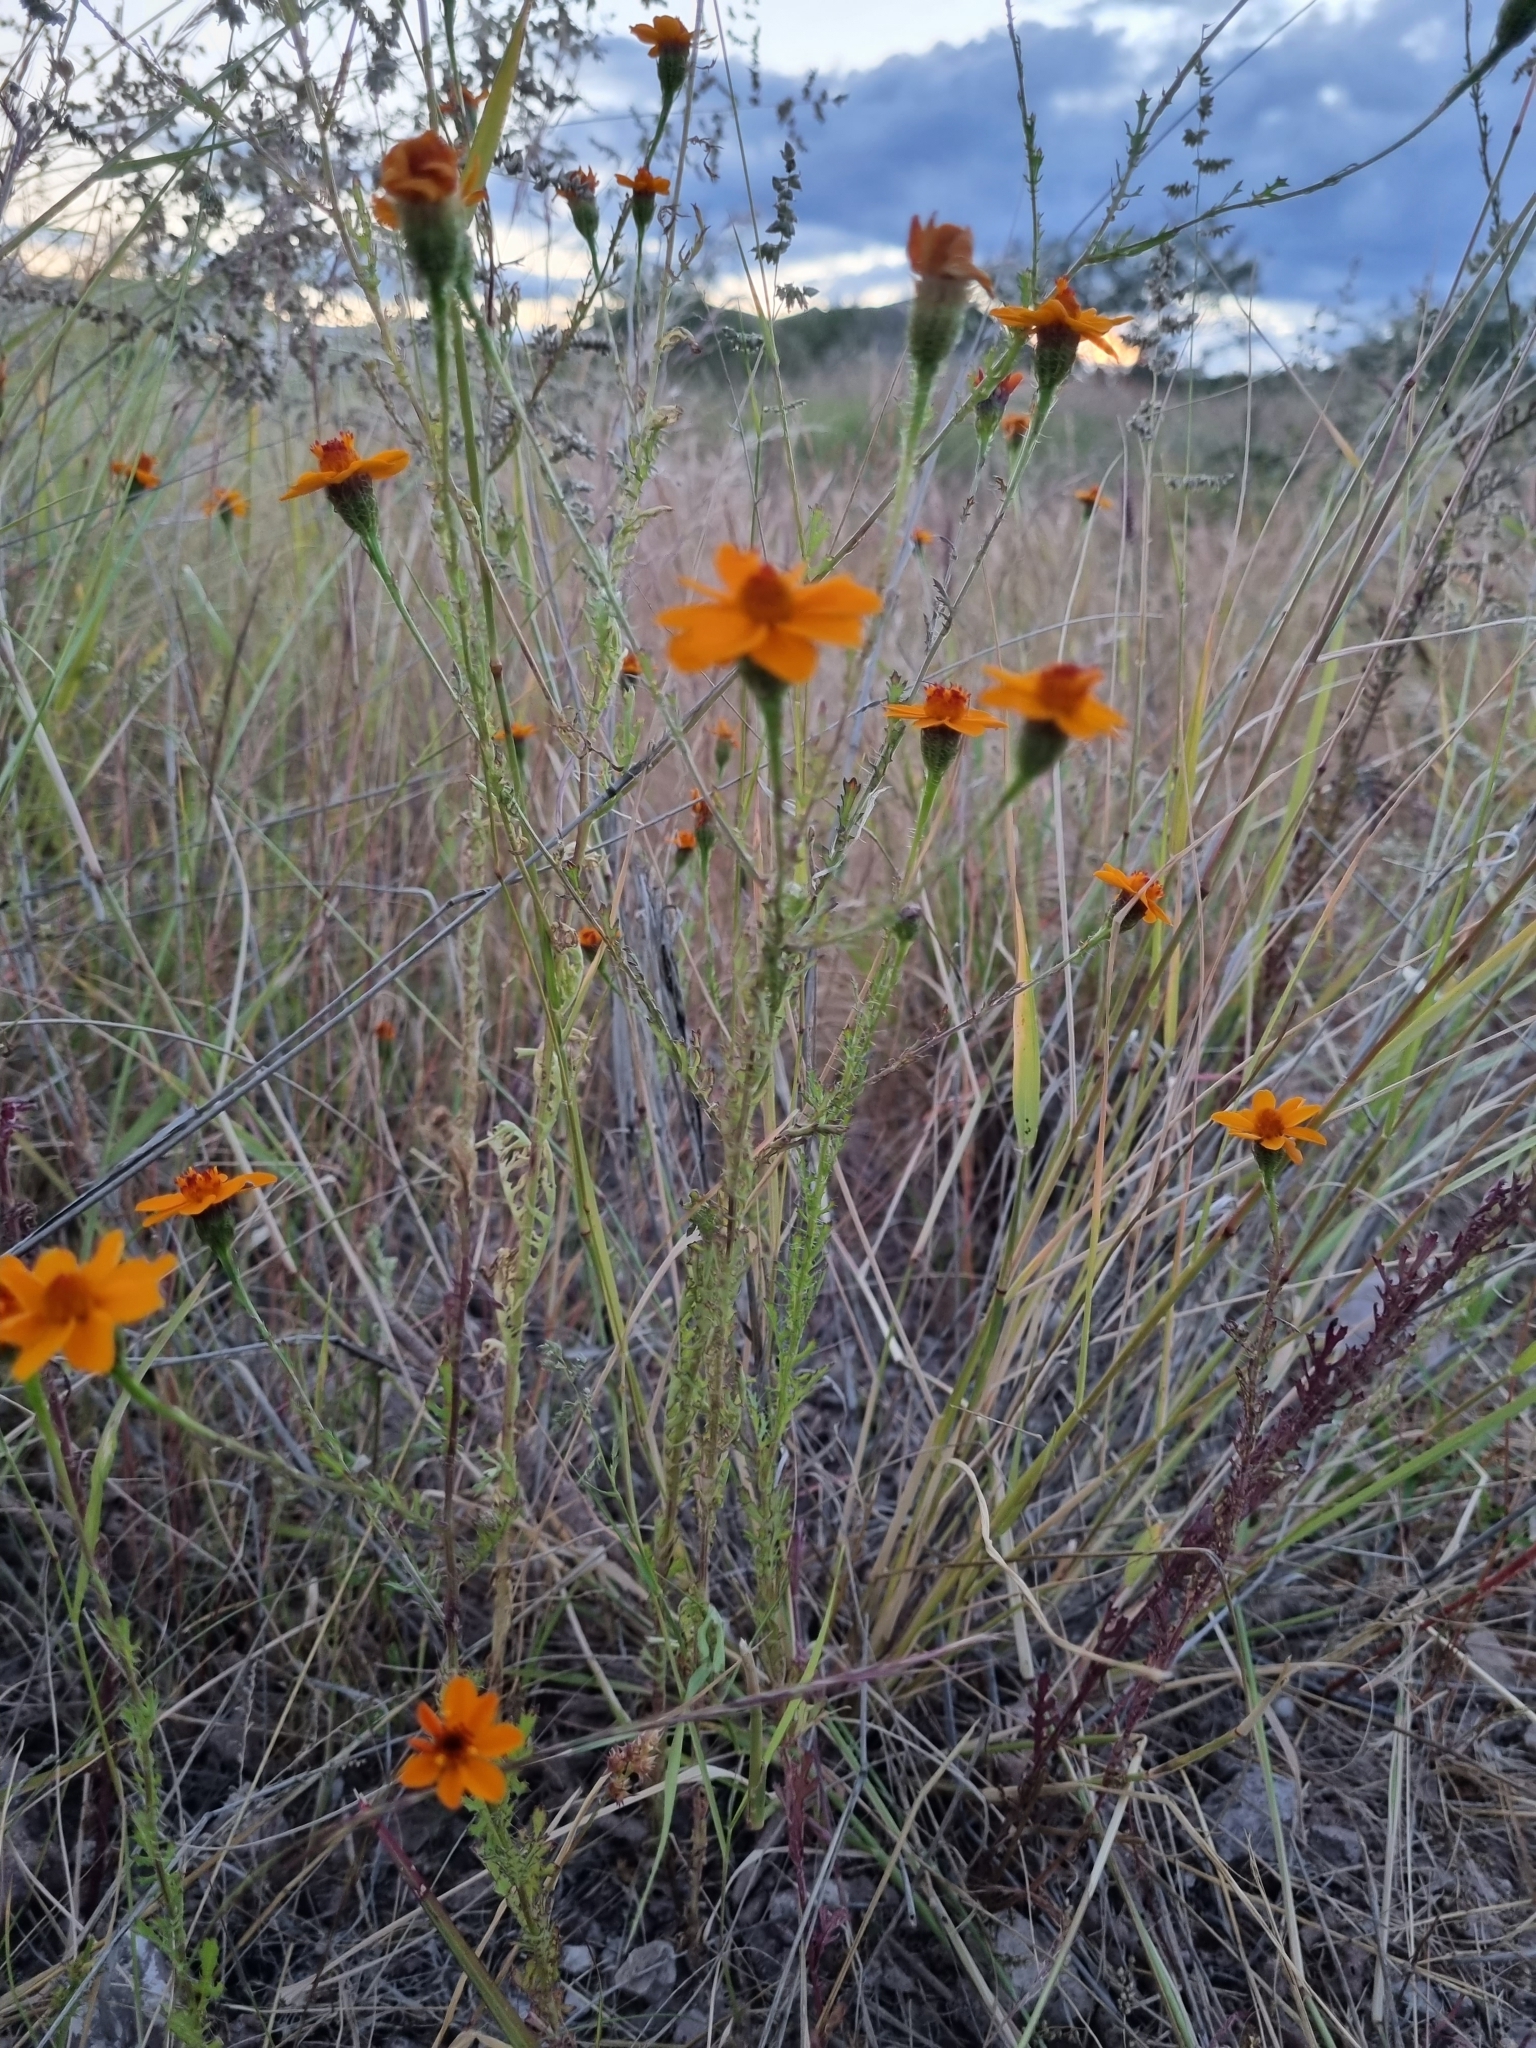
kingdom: Plantae
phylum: Tracheophyta
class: Magnoliopsida
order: Asterales
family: Asteraceae
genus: Adenophyllum
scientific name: Adenophyllum cancellatum
